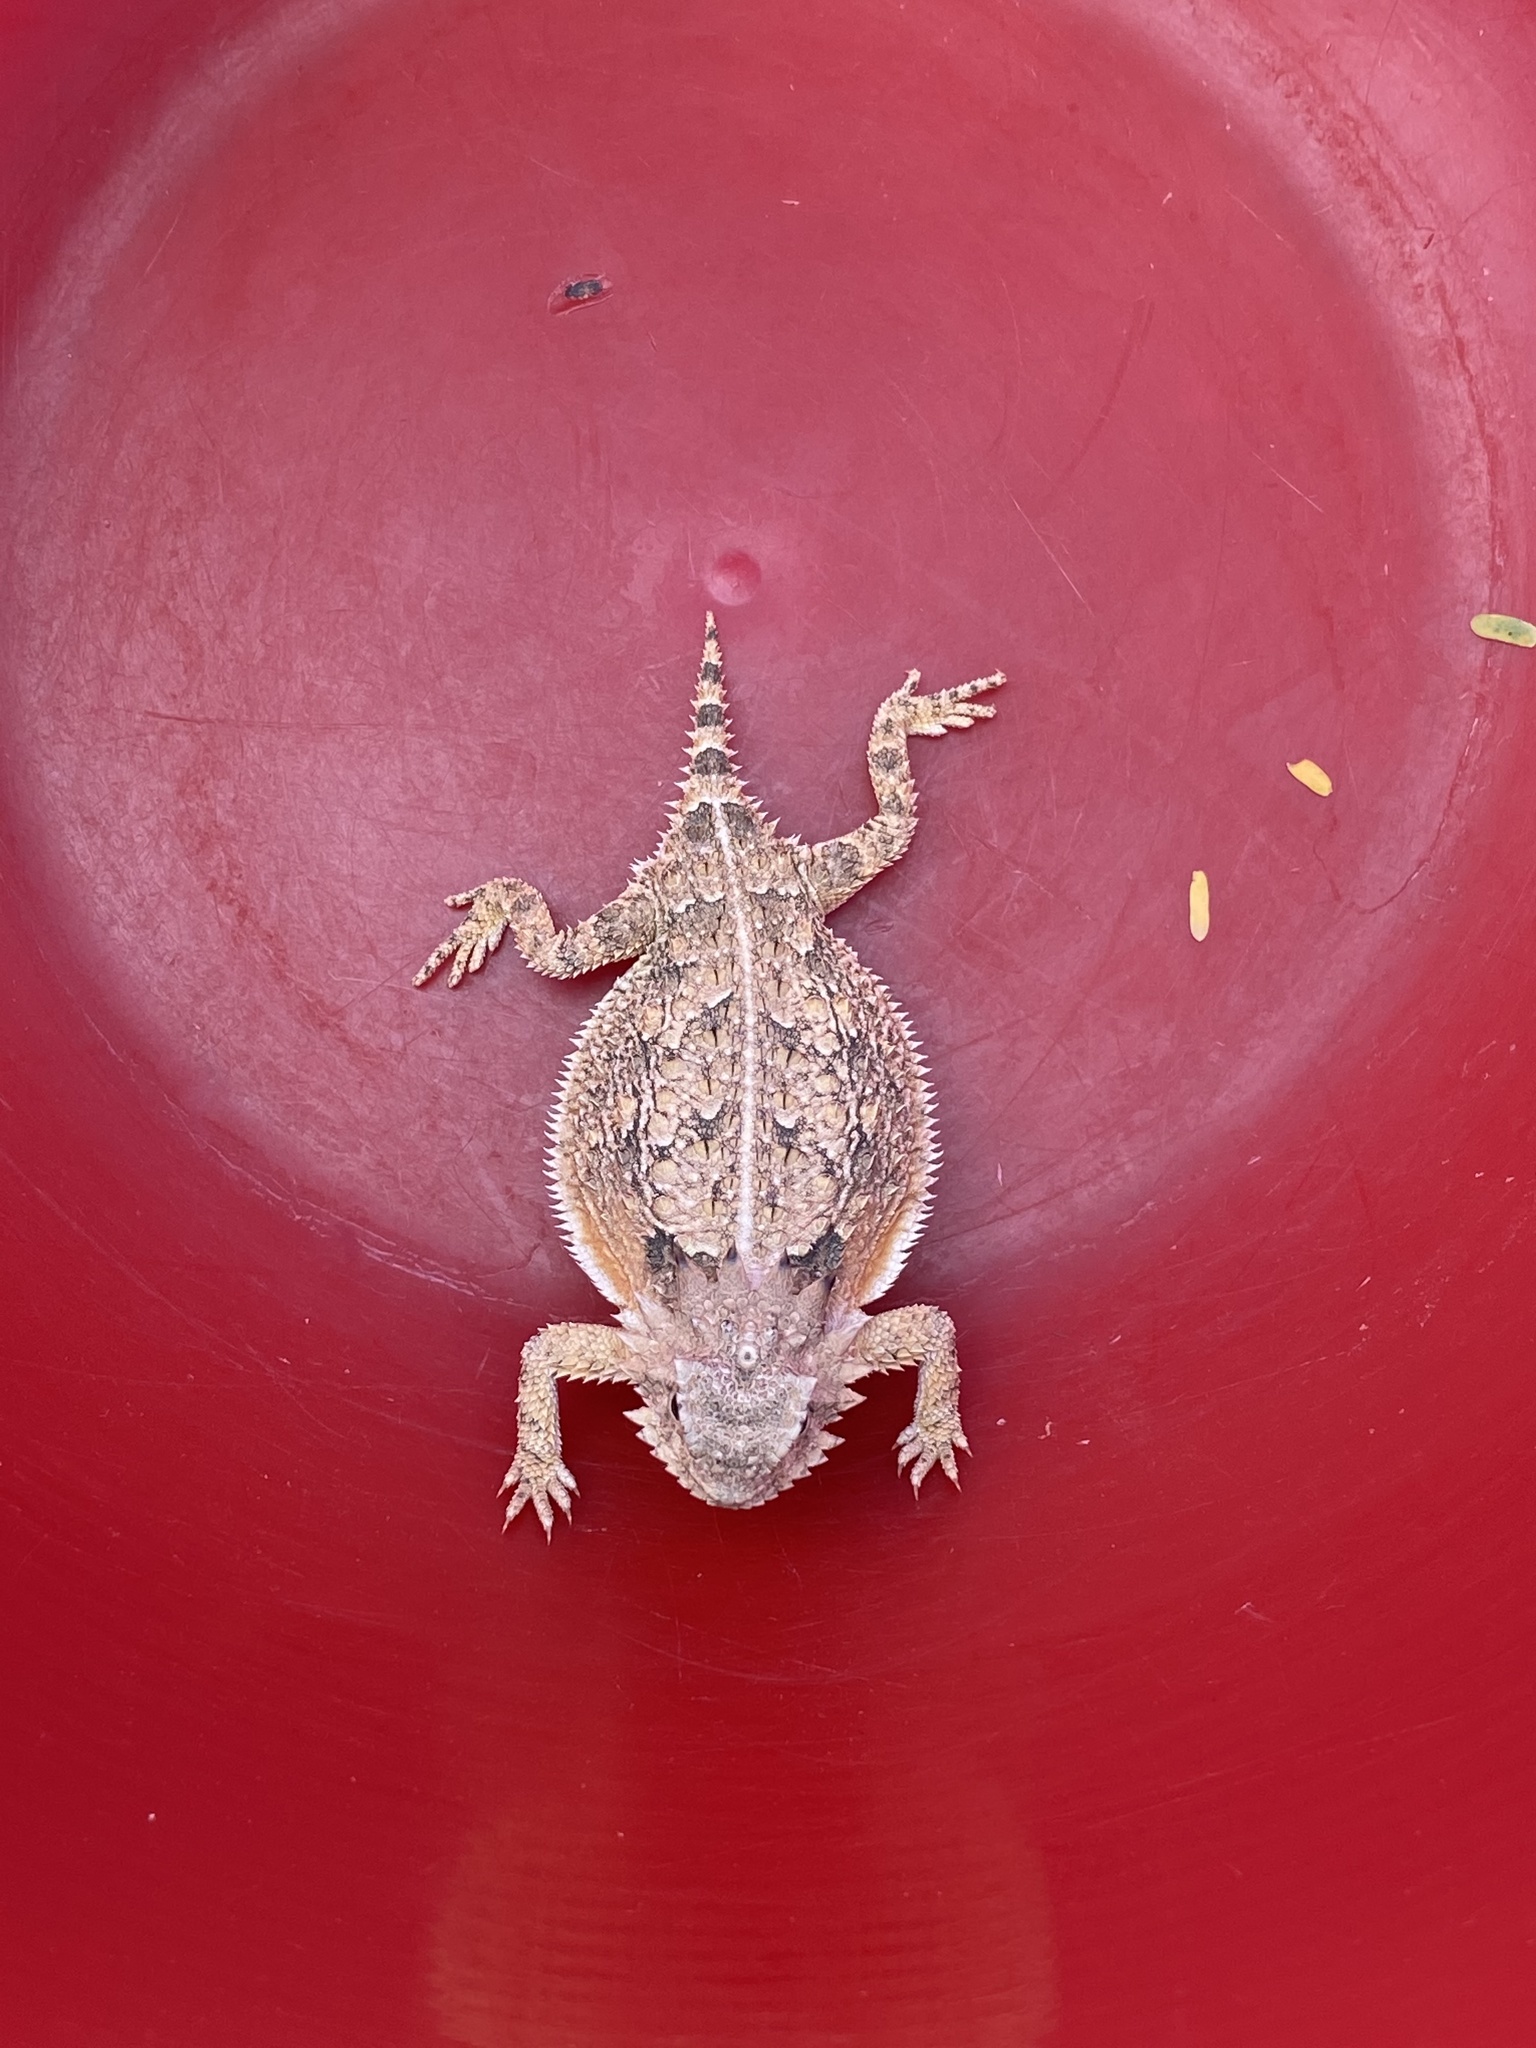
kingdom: Animalia
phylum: Chordata
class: Squamata
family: Phrynosomatidae
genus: Phrynosoma
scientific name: Phrynosoma solare
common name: Regal horned lizard
